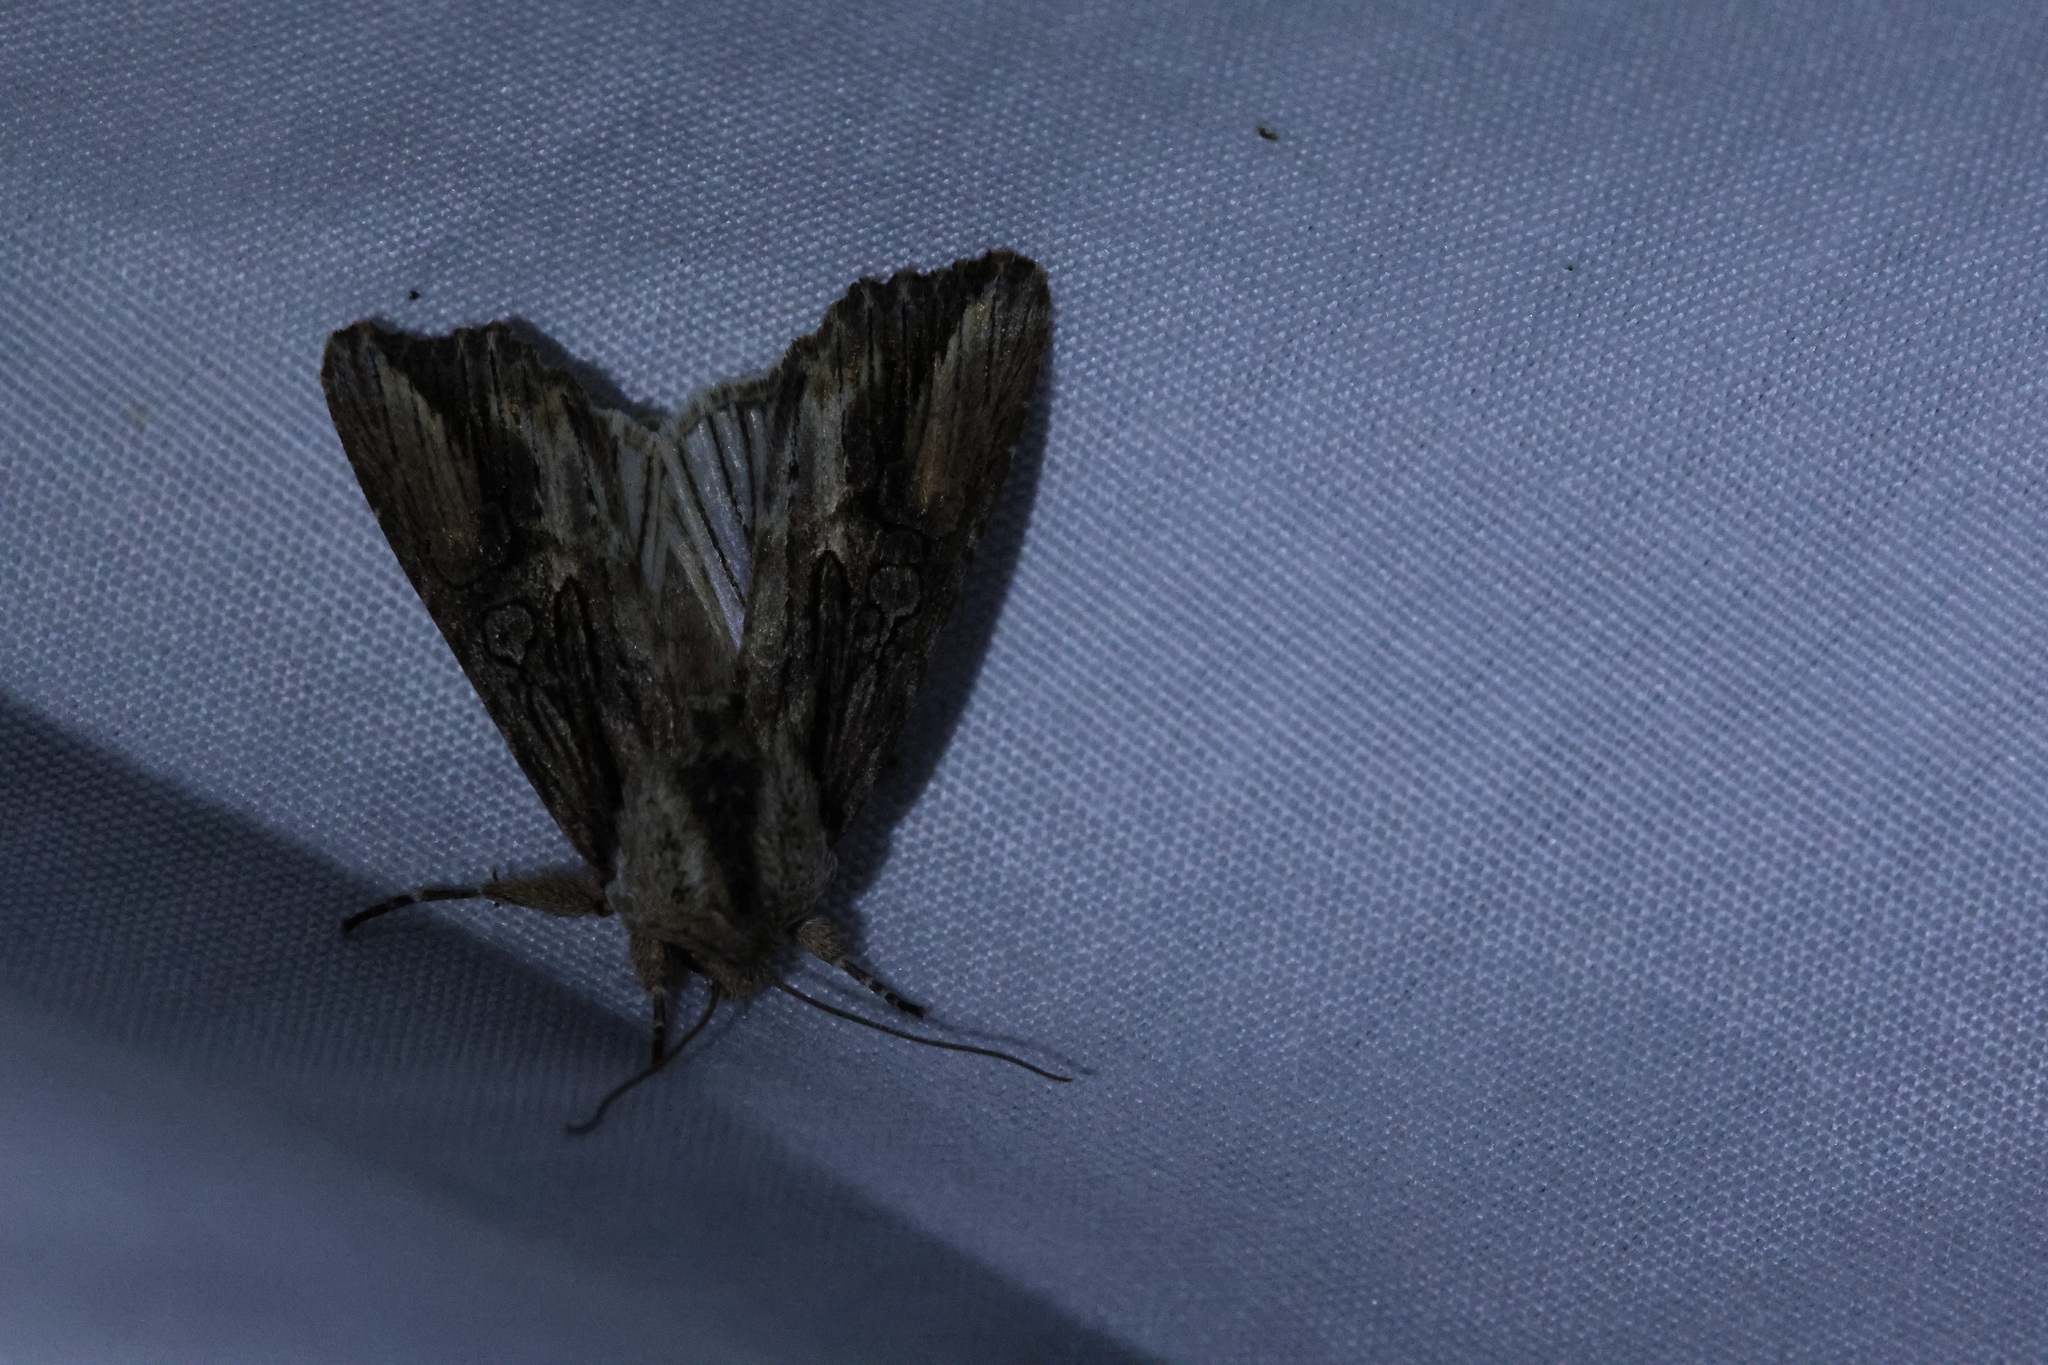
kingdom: Animalia
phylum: Arthropoda
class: Insecta
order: Lepidoptera
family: Noctuidae
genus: Egira
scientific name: Egira conspicillaris
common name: Silver cloud
